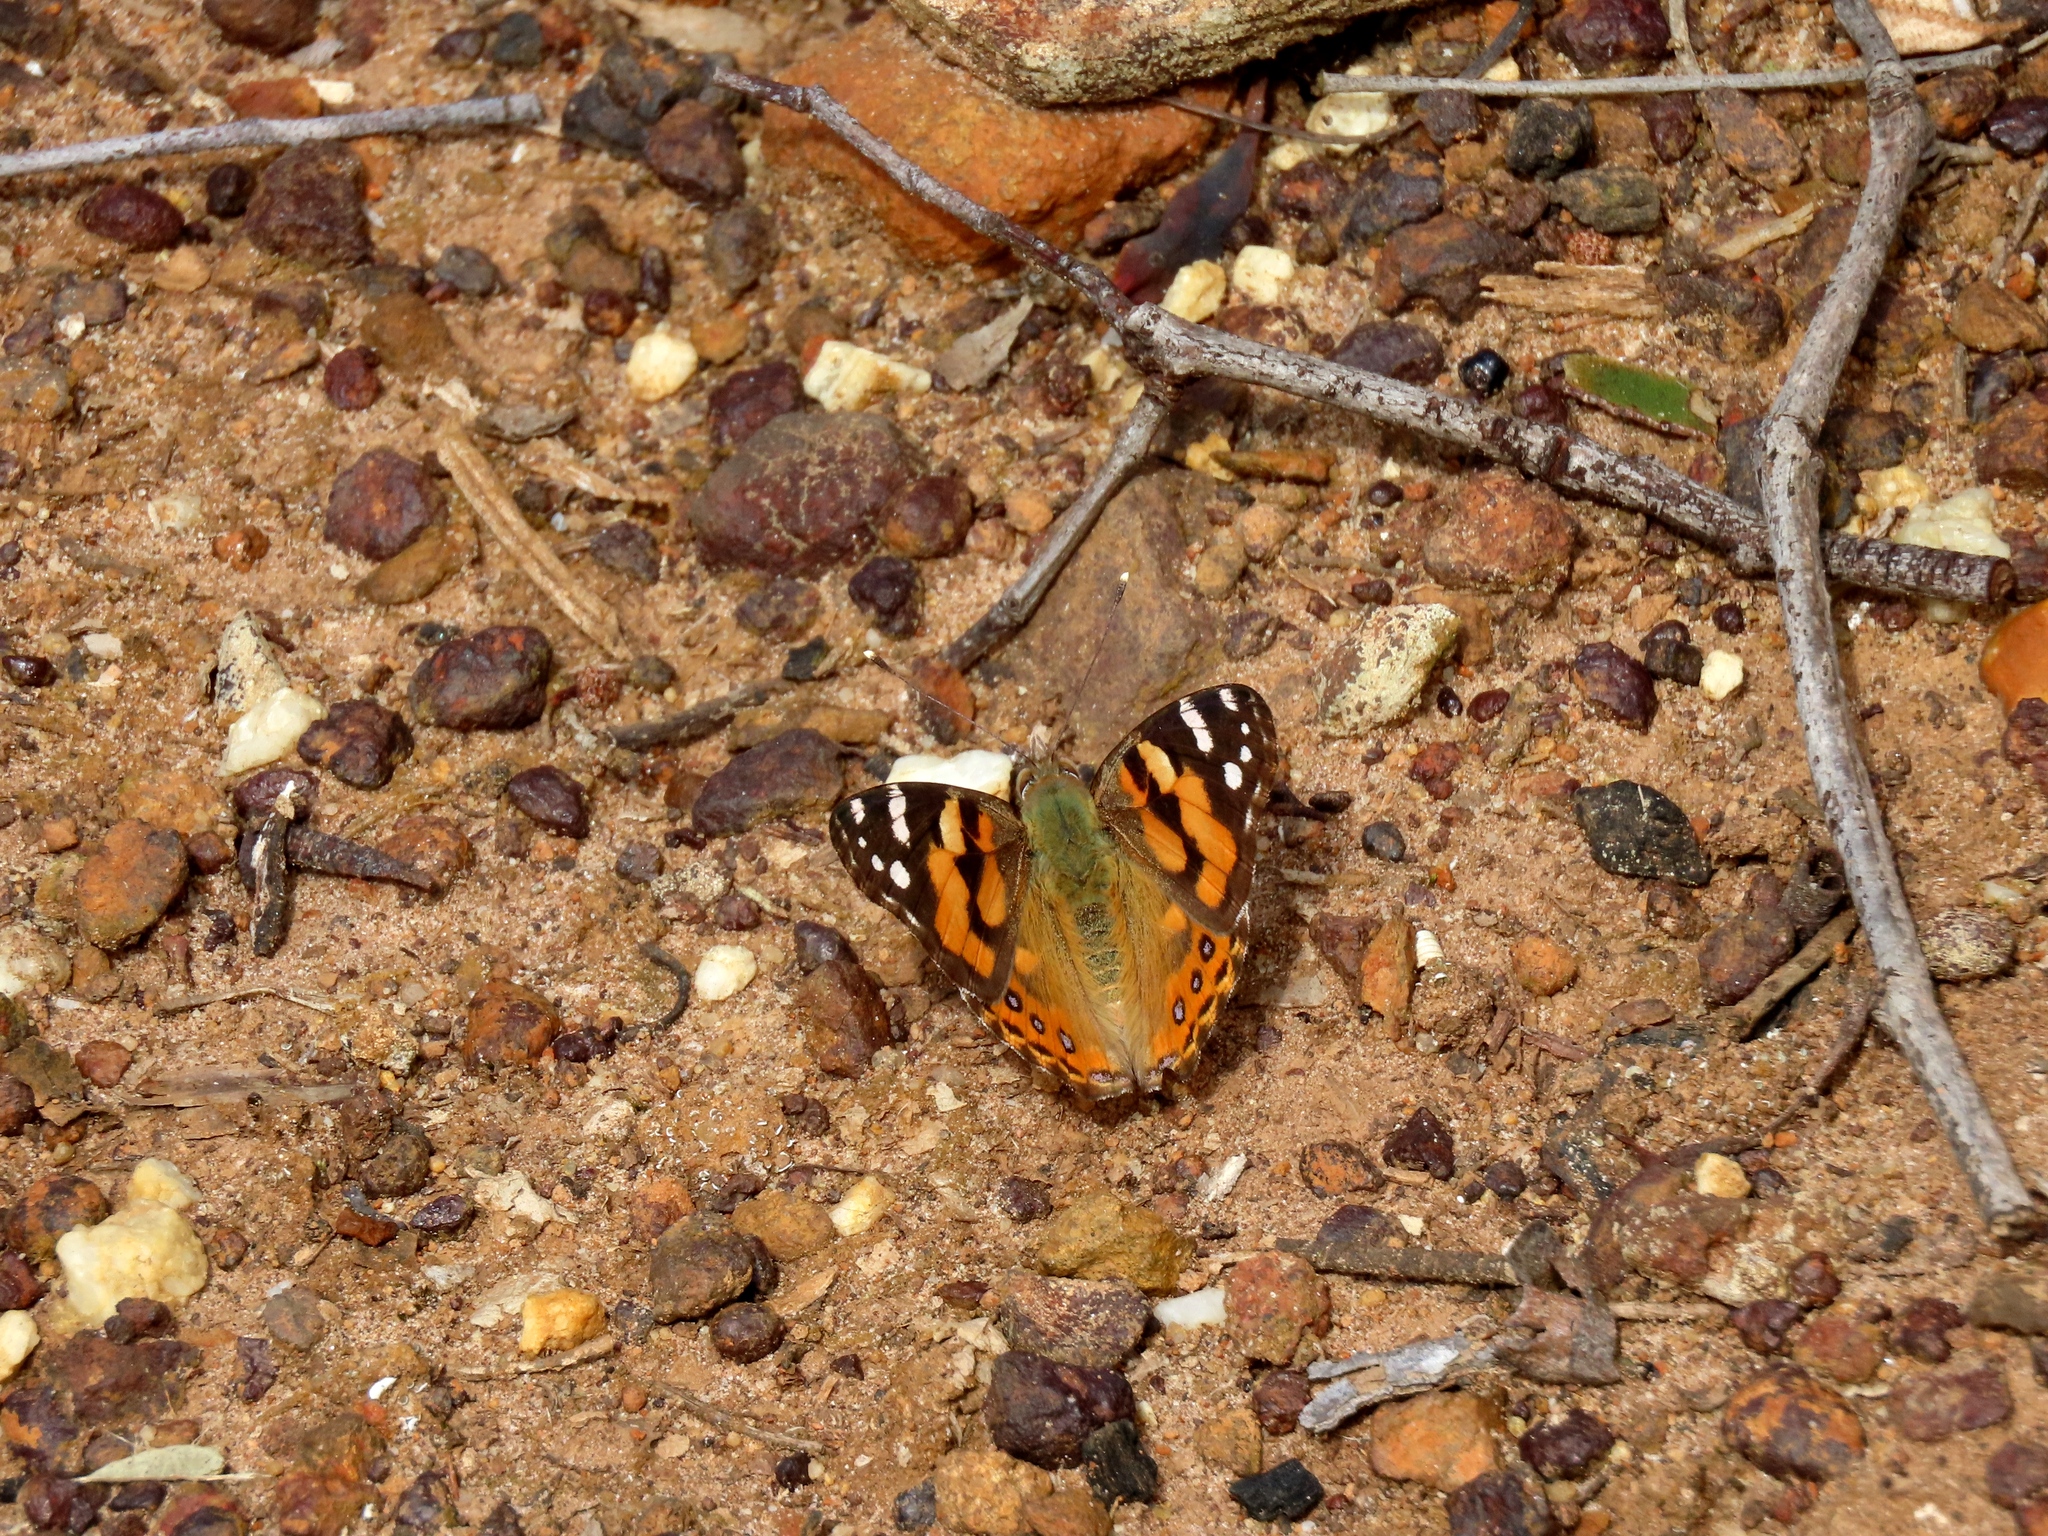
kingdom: Animalia
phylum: Arthropoda
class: Insecta
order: Lepidoptera
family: Nymphalidae
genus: Vanessa
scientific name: Vanessa kershawi
